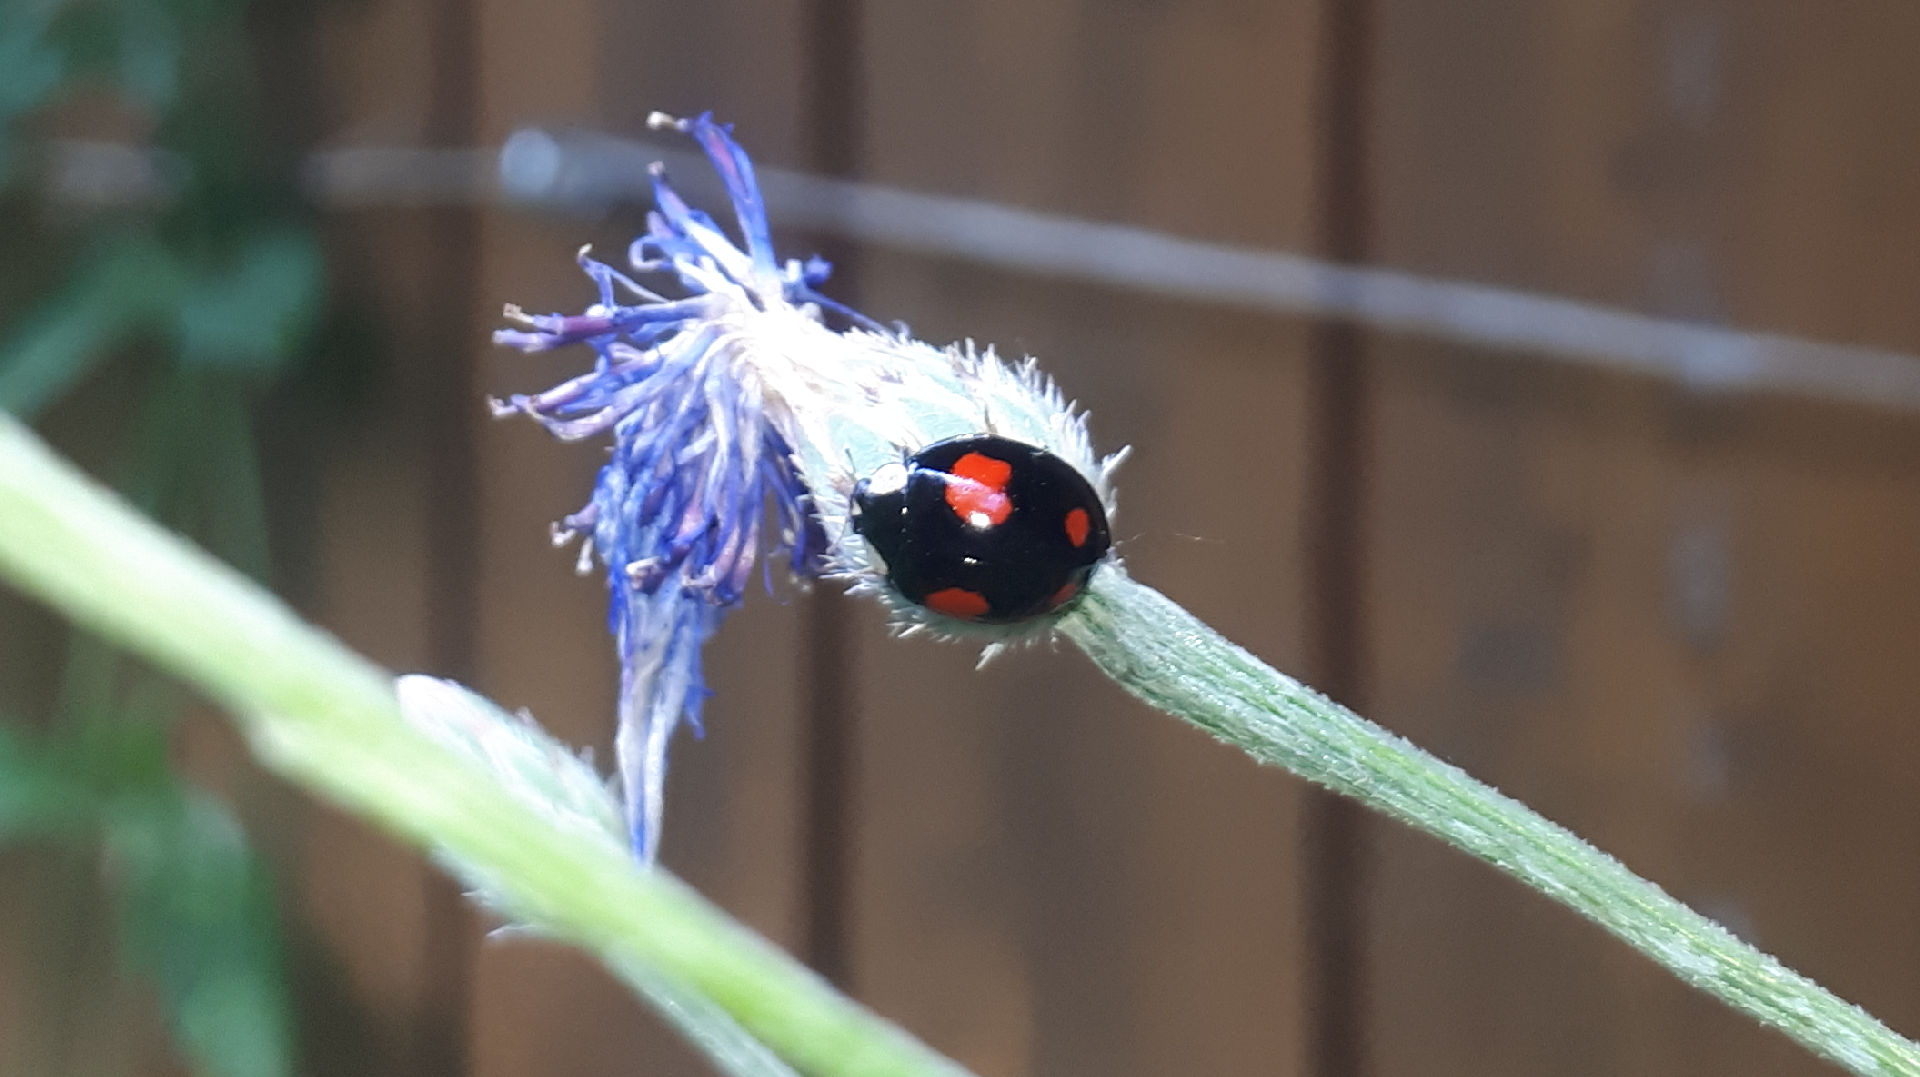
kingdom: Animalia
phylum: Arthropoda
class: Insecta
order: Coleoptera
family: Coccinellidae
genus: Harmonia
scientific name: Harmonia axyridis
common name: Harlequin ladybird
